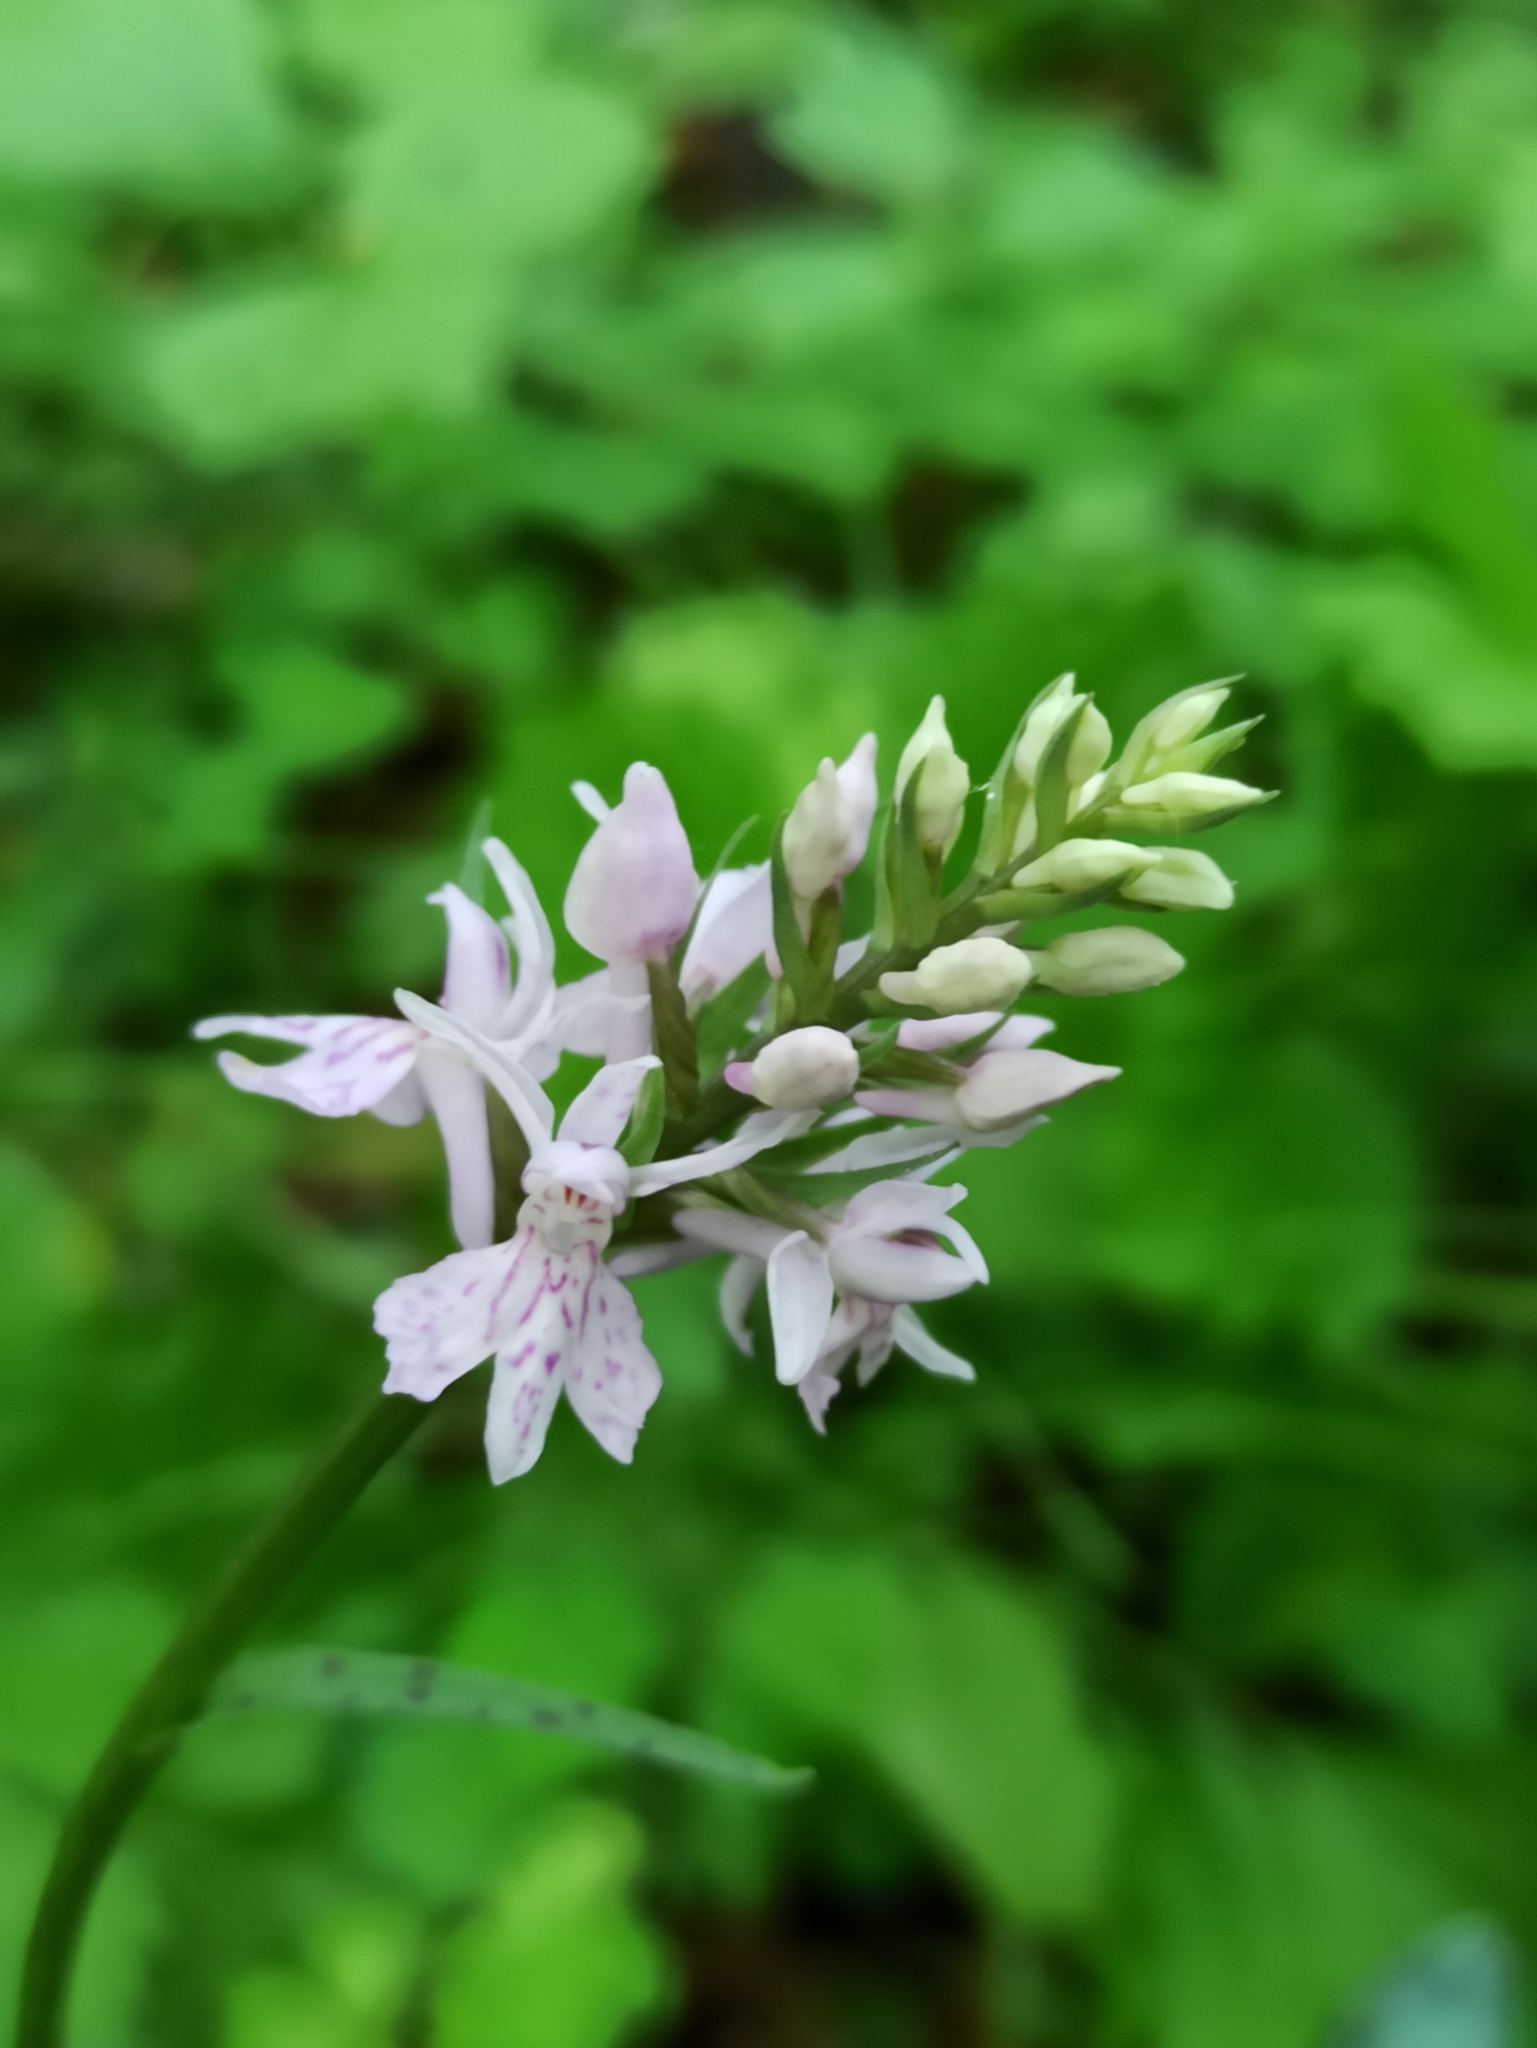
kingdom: Plantae
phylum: Tracheophyta
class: Liliopsida
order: Asparagales
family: Orchidaceae
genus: Dactylorhiza
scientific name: Dactylorhiza maculata
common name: Heath spotted-orchid
